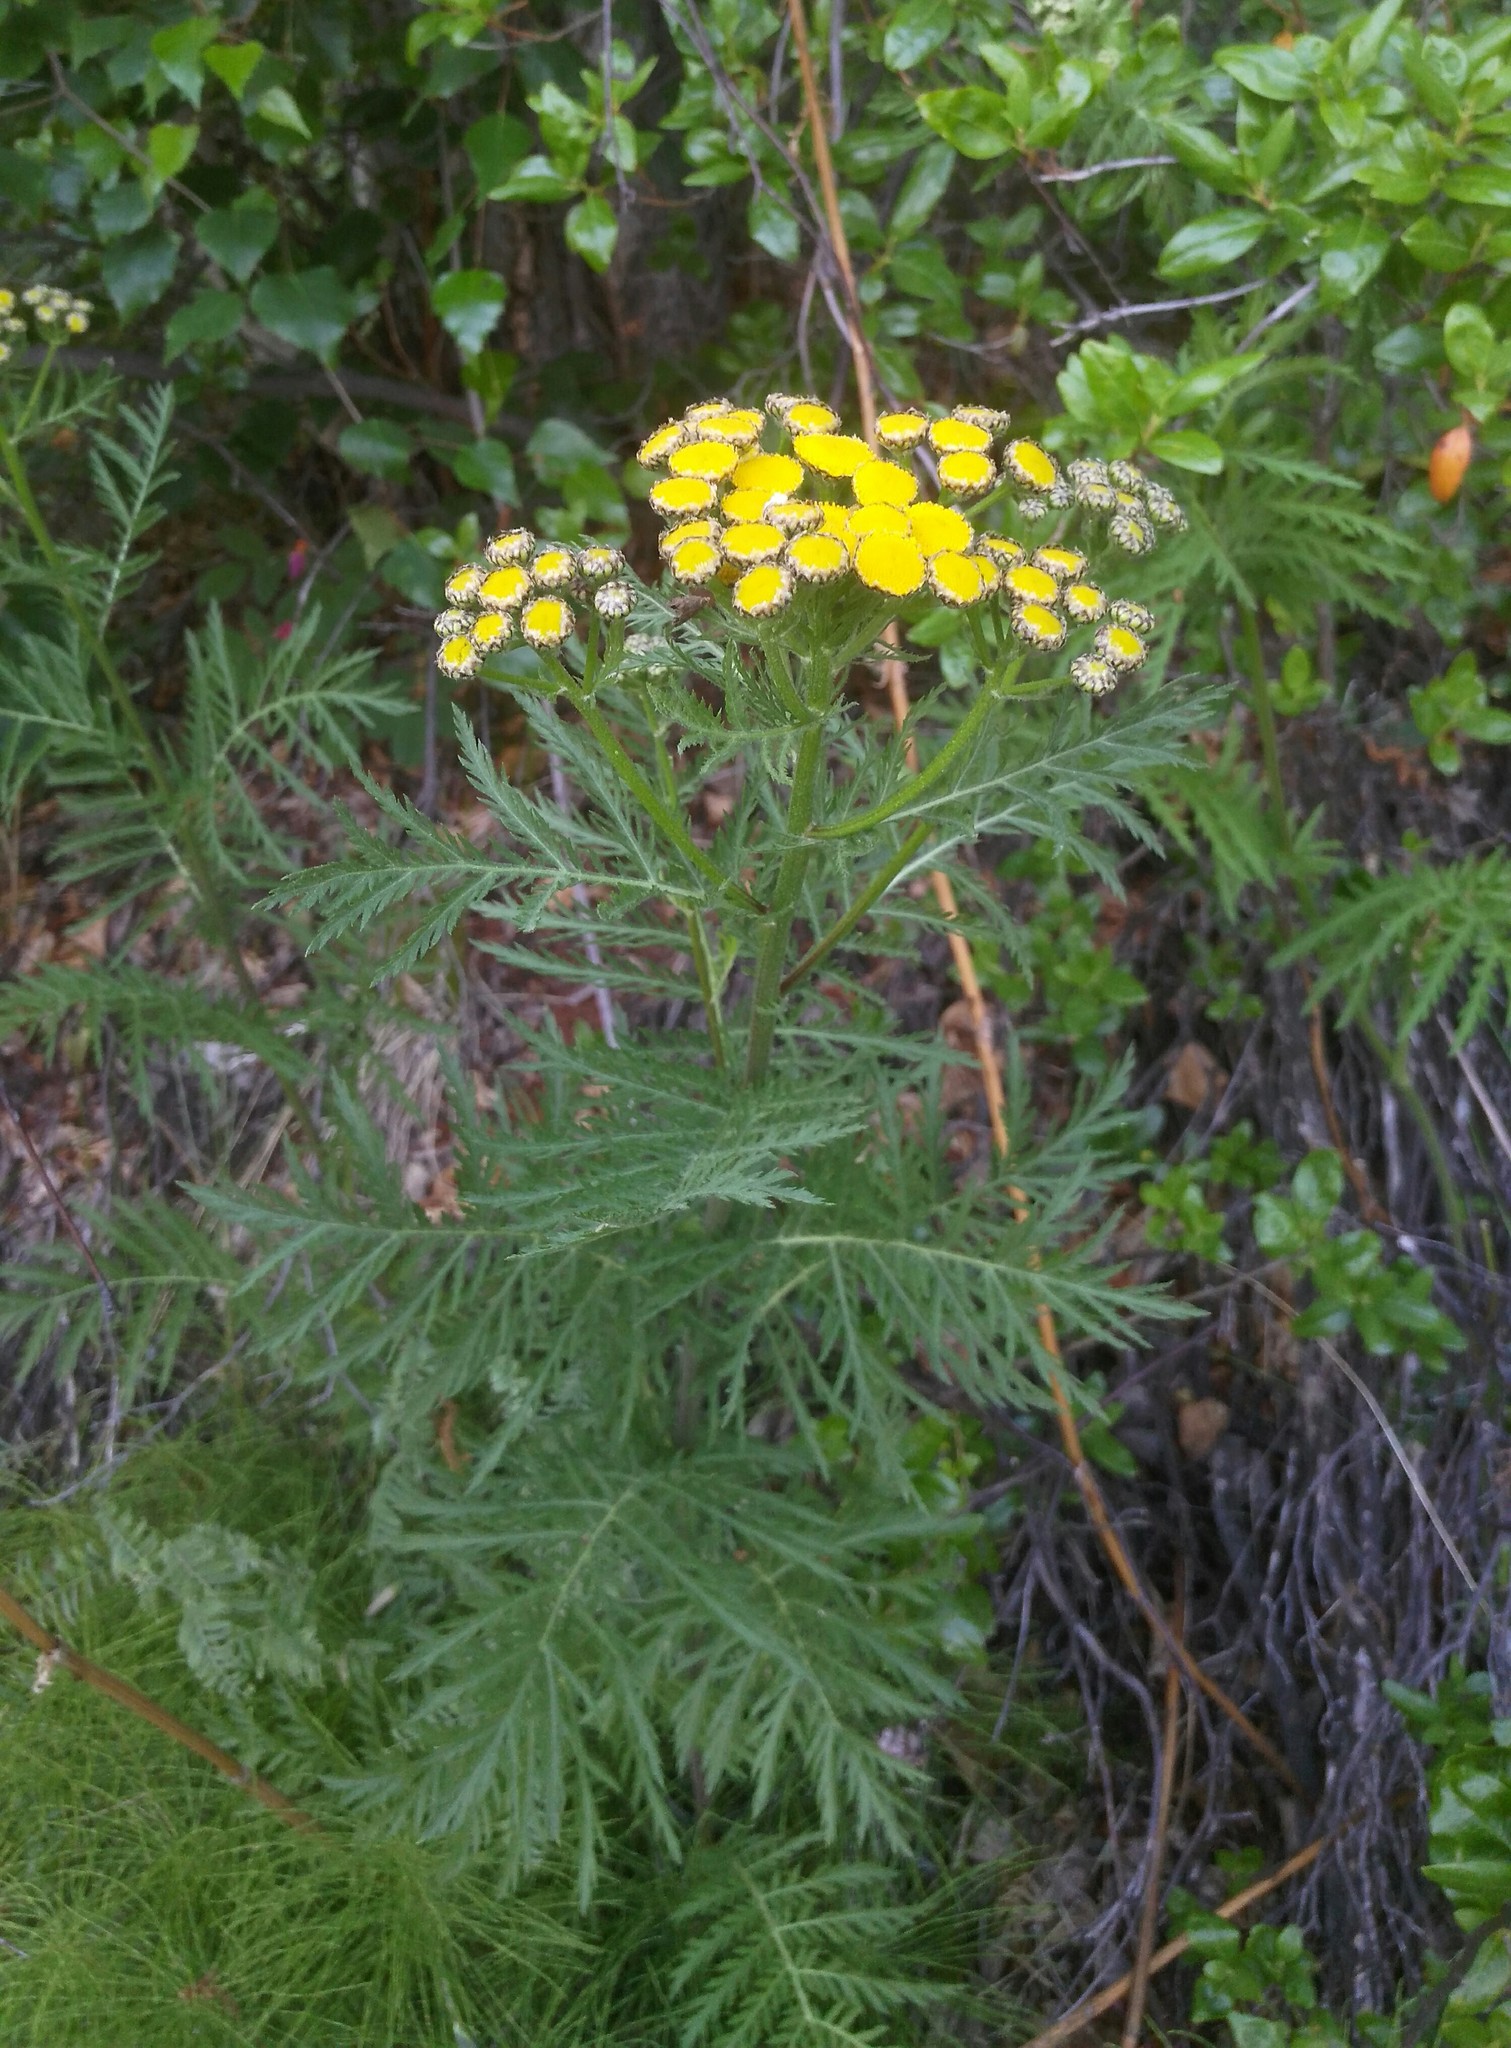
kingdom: Plantae
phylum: Tracheophyta
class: Magnoliopsida
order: Asterales
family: Asteraceae
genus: Tanacetum
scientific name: Tanacetum vulgare
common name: Common tansy
